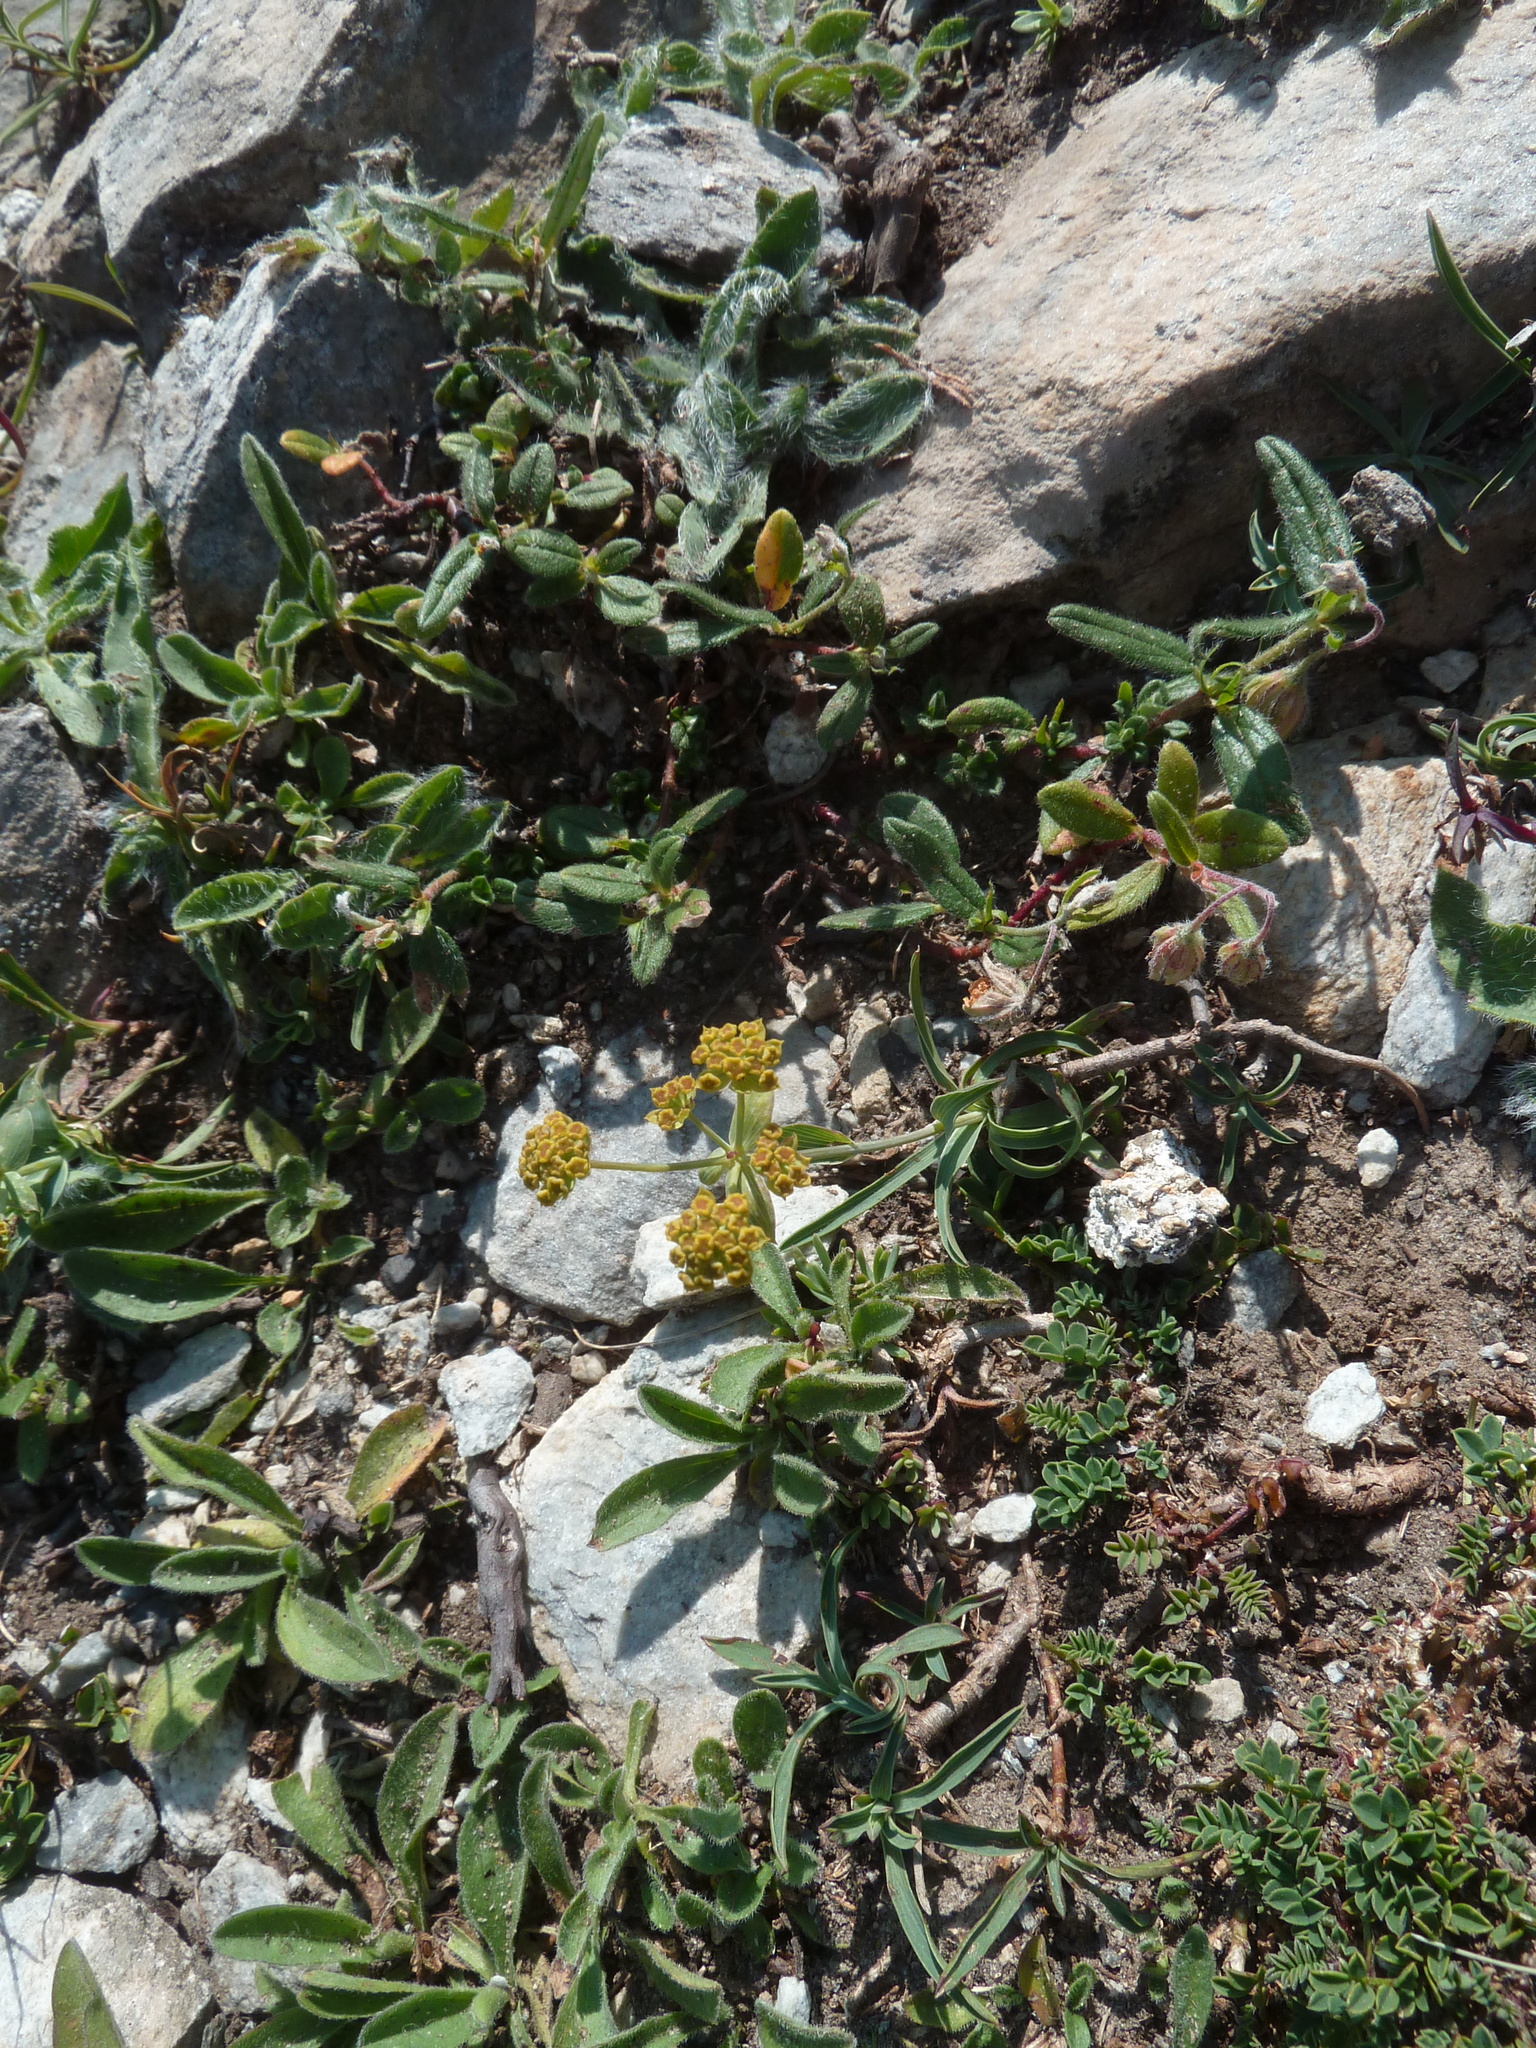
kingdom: Plantae
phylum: Tracheophyta
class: Magnoliopsida
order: Apiales
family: Apiaceae
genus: Bupleurum
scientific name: Bupleurum ranunculoides
